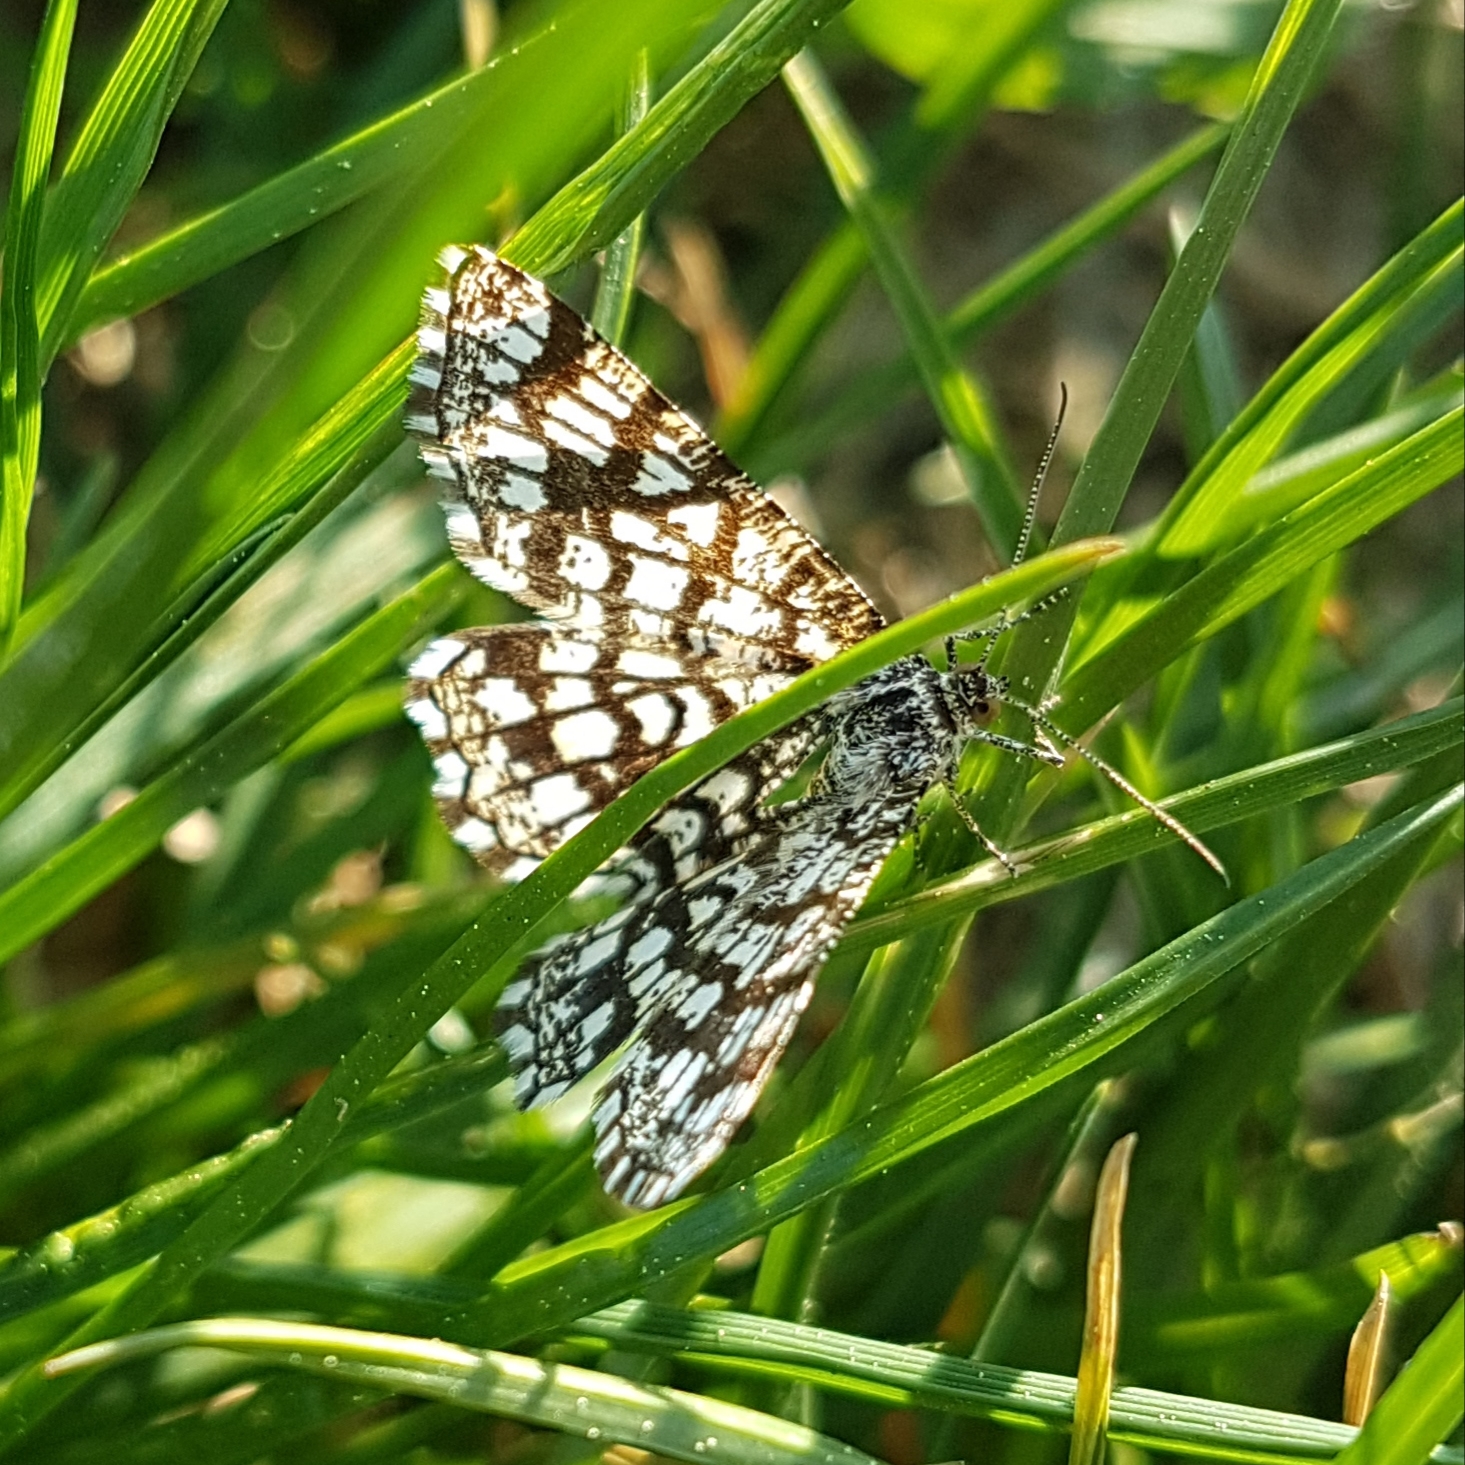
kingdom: Animalia
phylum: Arthropoda
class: Insecta
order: Lepidoptera
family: Geometridae
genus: Chiasmia
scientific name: Chiasmia clathrata
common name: Latticed heath
